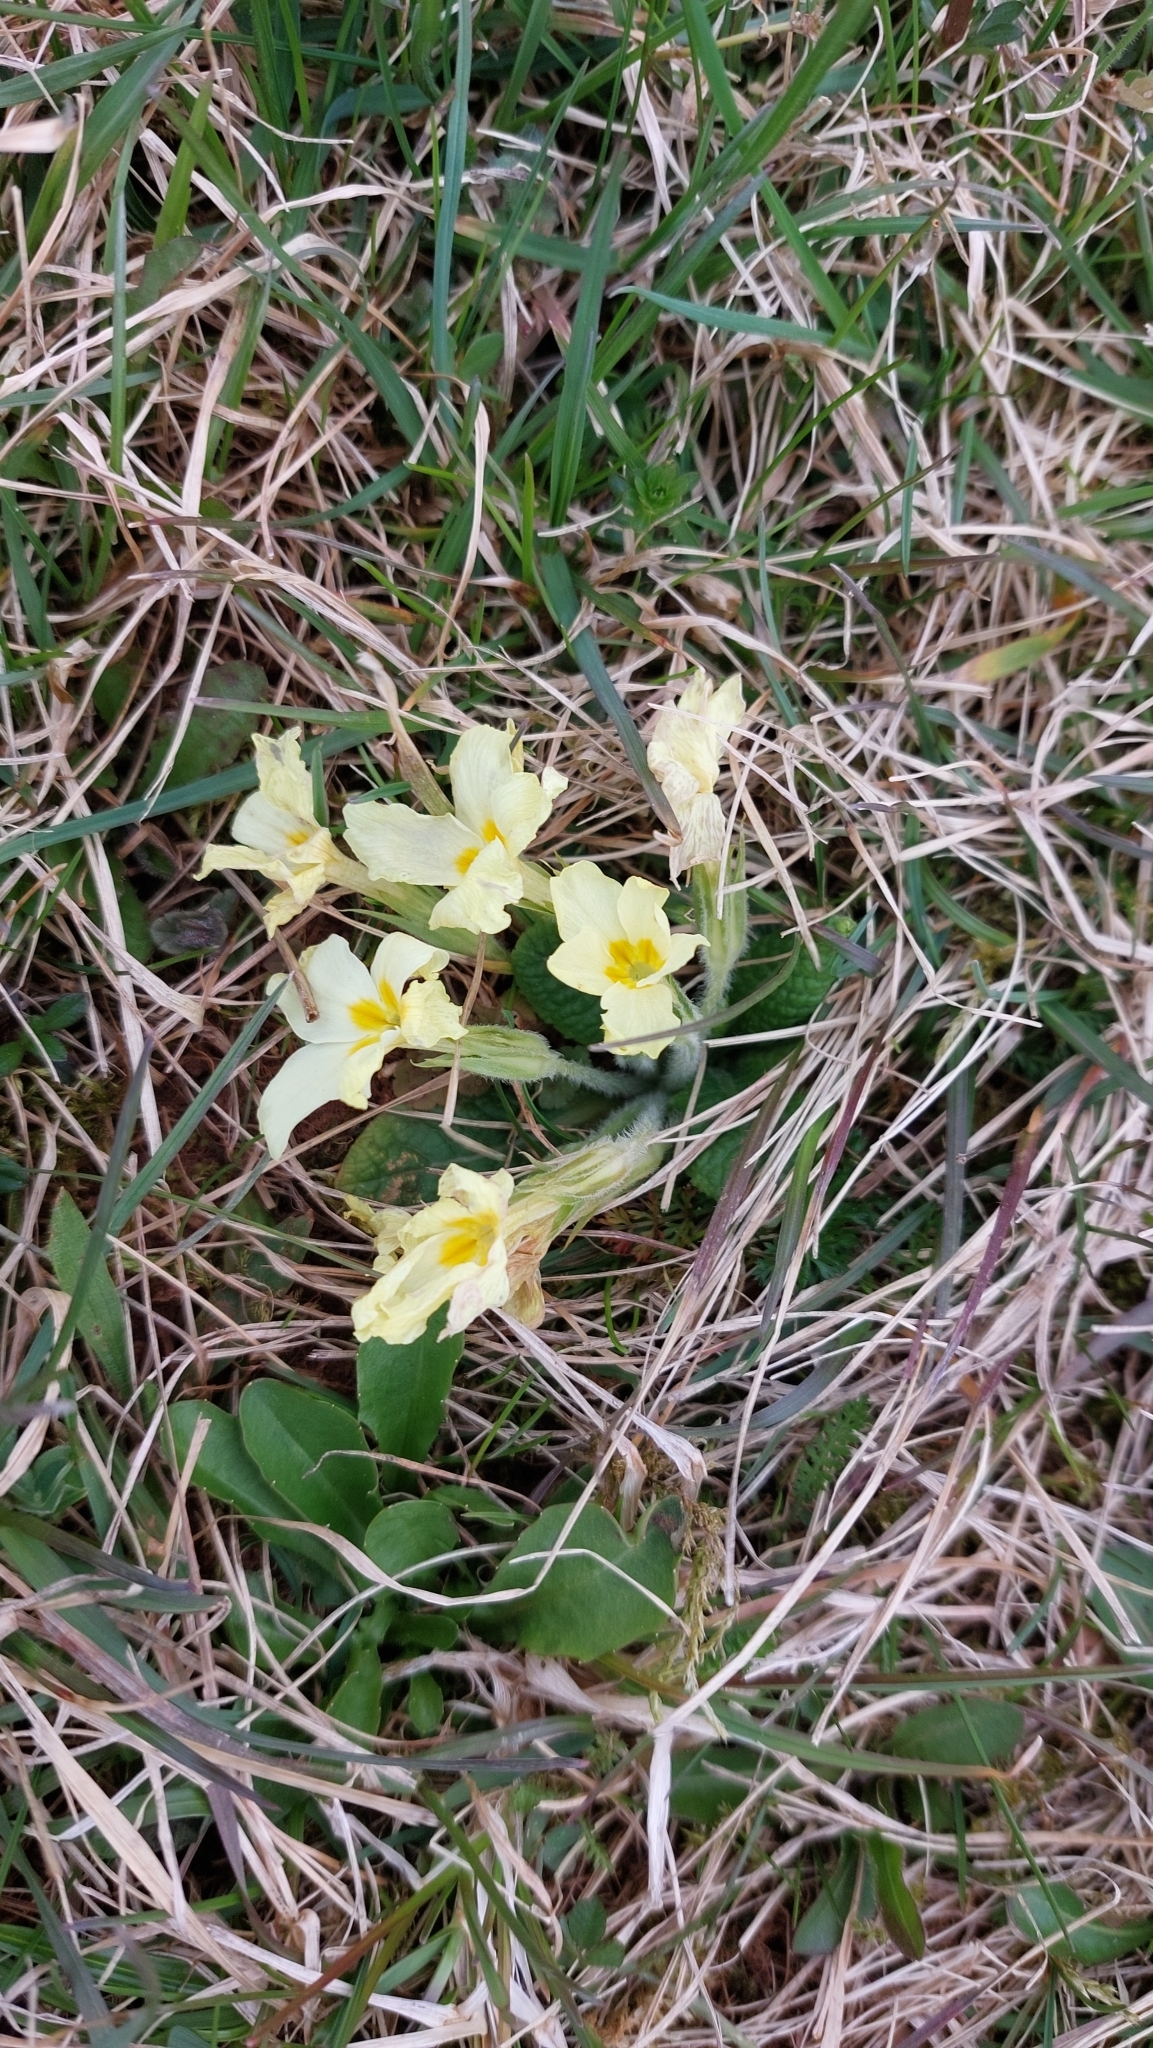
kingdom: Plantae
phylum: Tracheophyta
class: Magnoliopsida
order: Ericales
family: Primulaceae
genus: Primula
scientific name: Primula vulgaris
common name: Primrose
